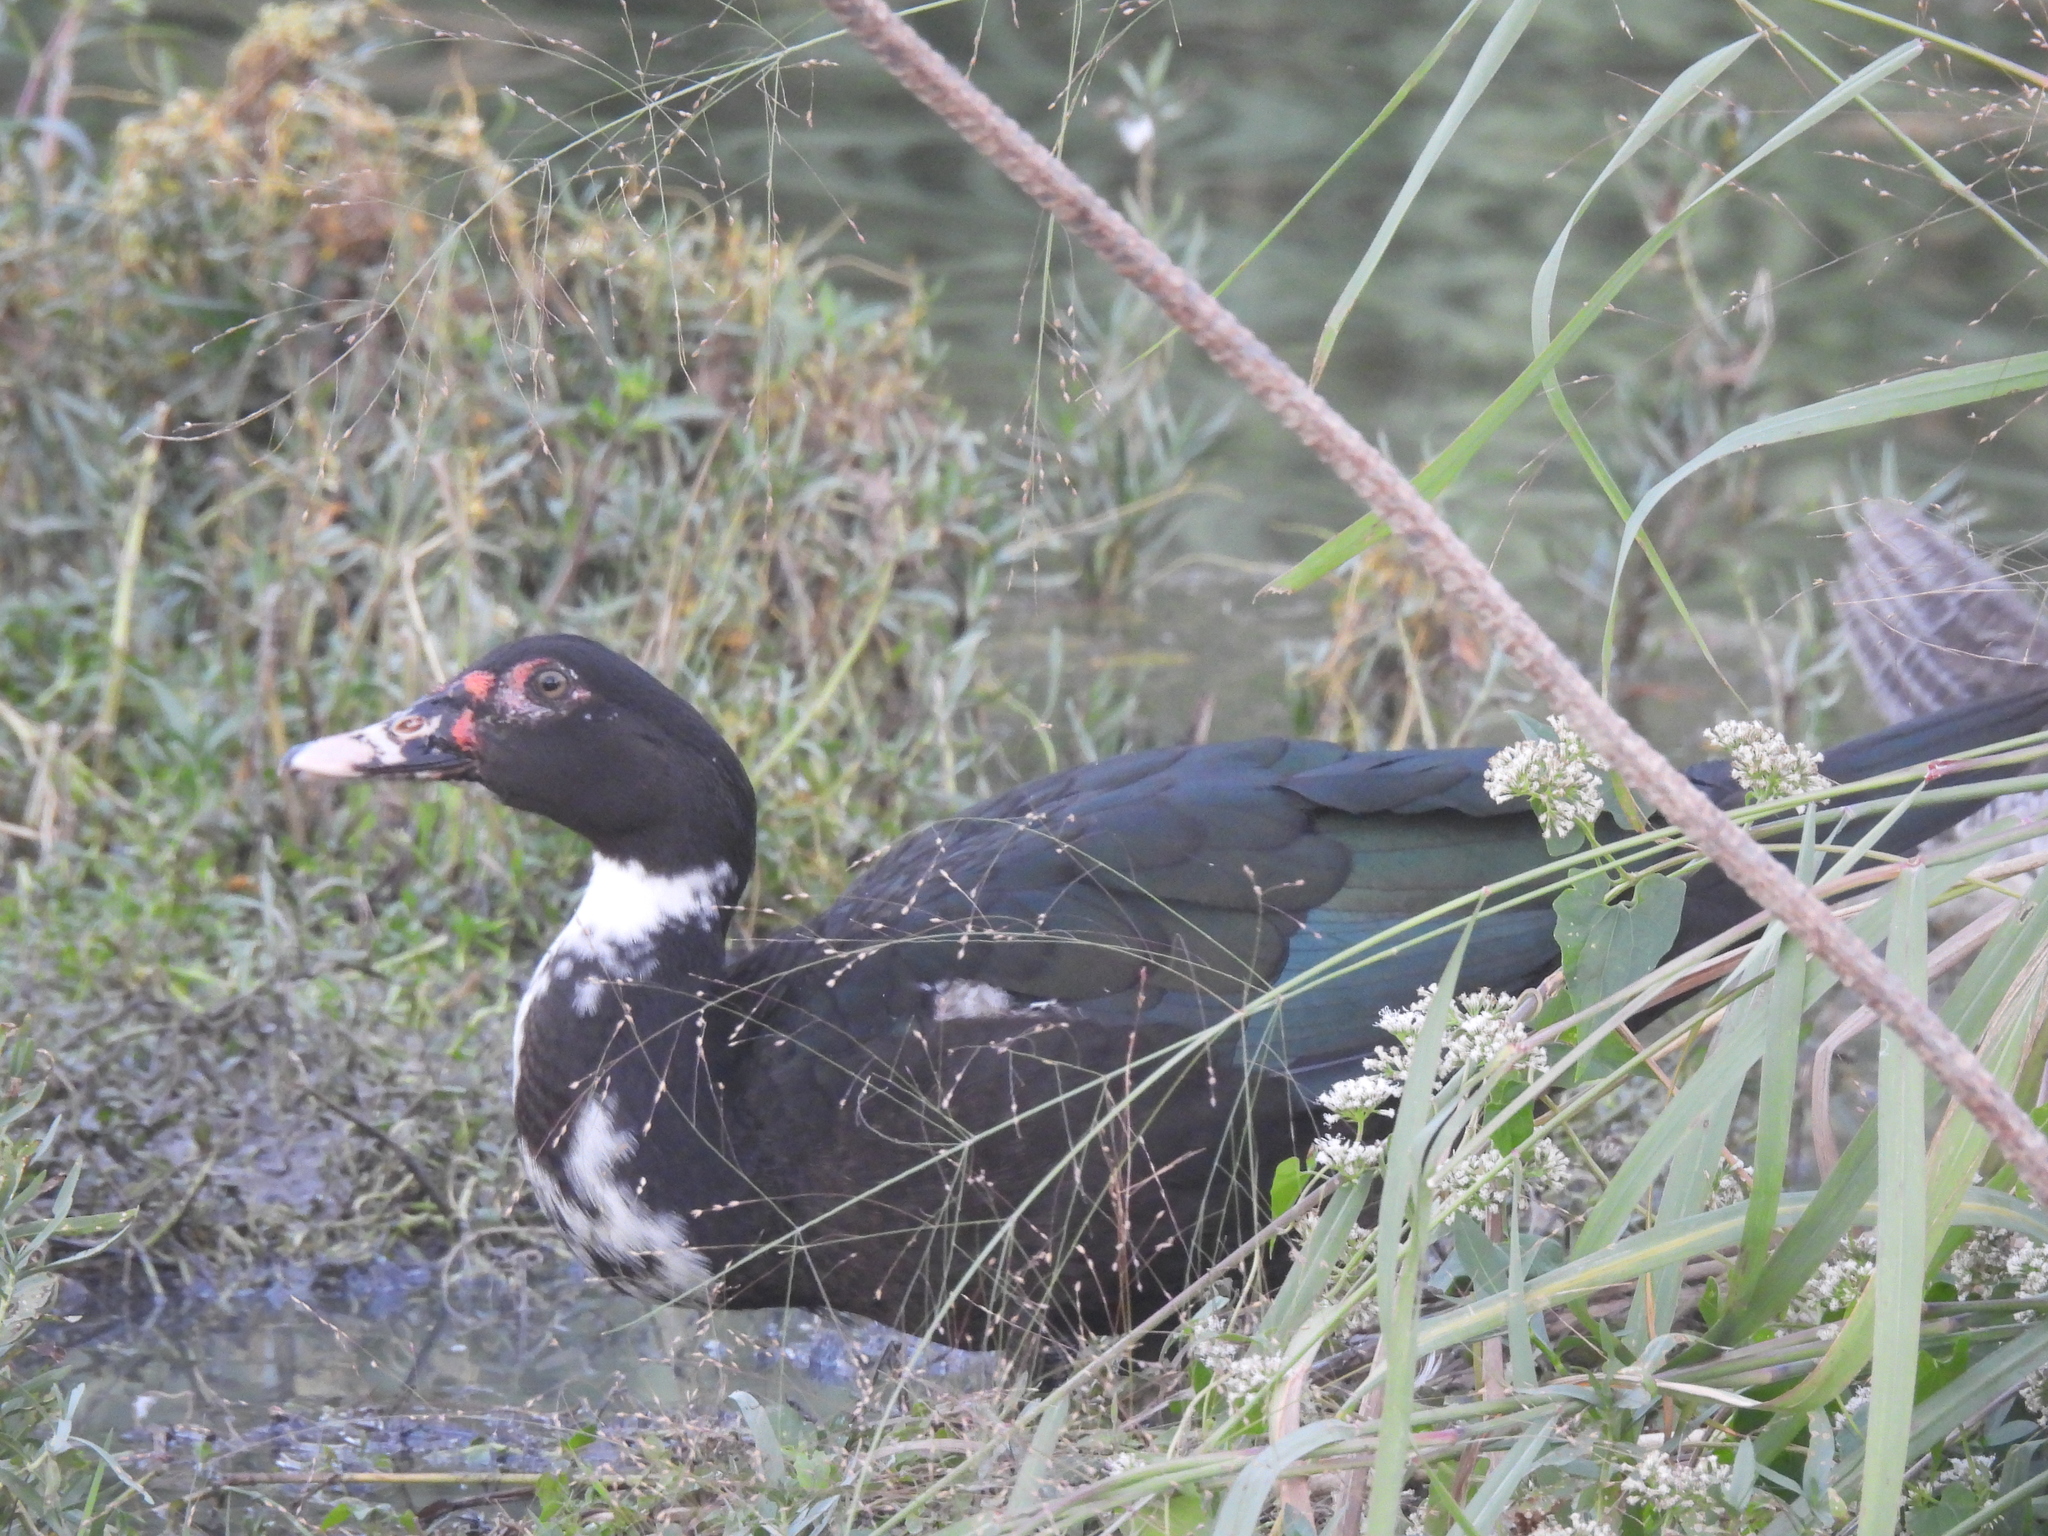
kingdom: Animalia
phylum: Chordata
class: Aves
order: Anseriformes
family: Anatidae
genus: Cairina
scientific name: Cairina moschata
